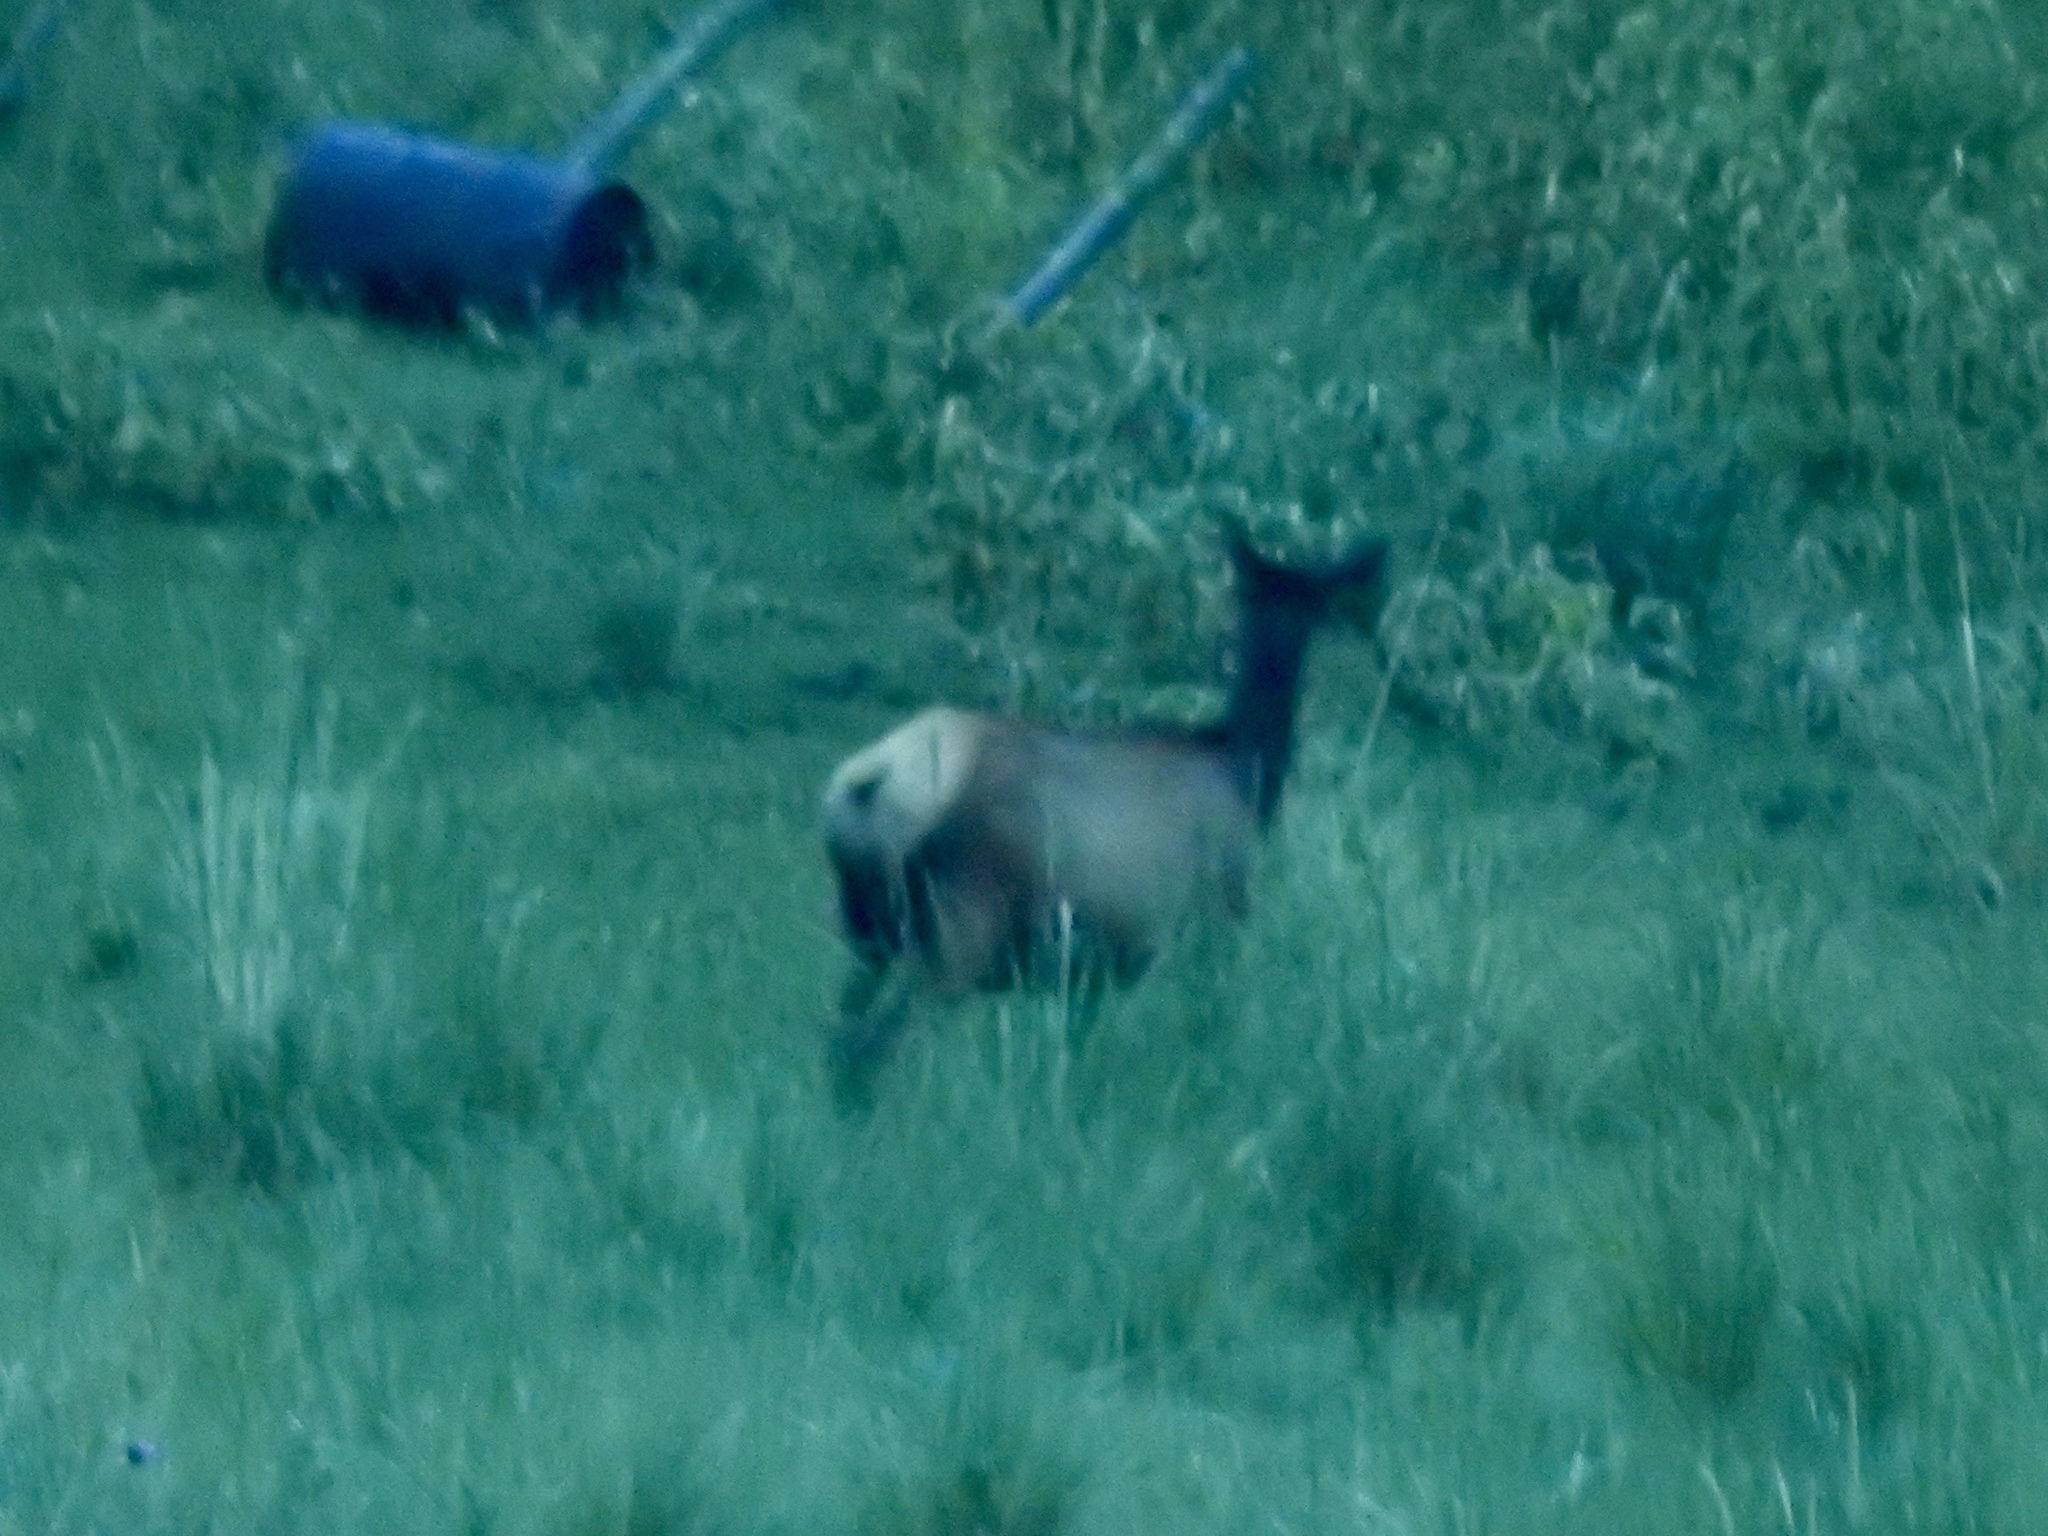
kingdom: Animalia
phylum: Chordata
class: Mammalia
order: Artiodactyla
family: Cervidae
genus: Cervus
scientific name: Cervus elaphus
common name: Red deer
